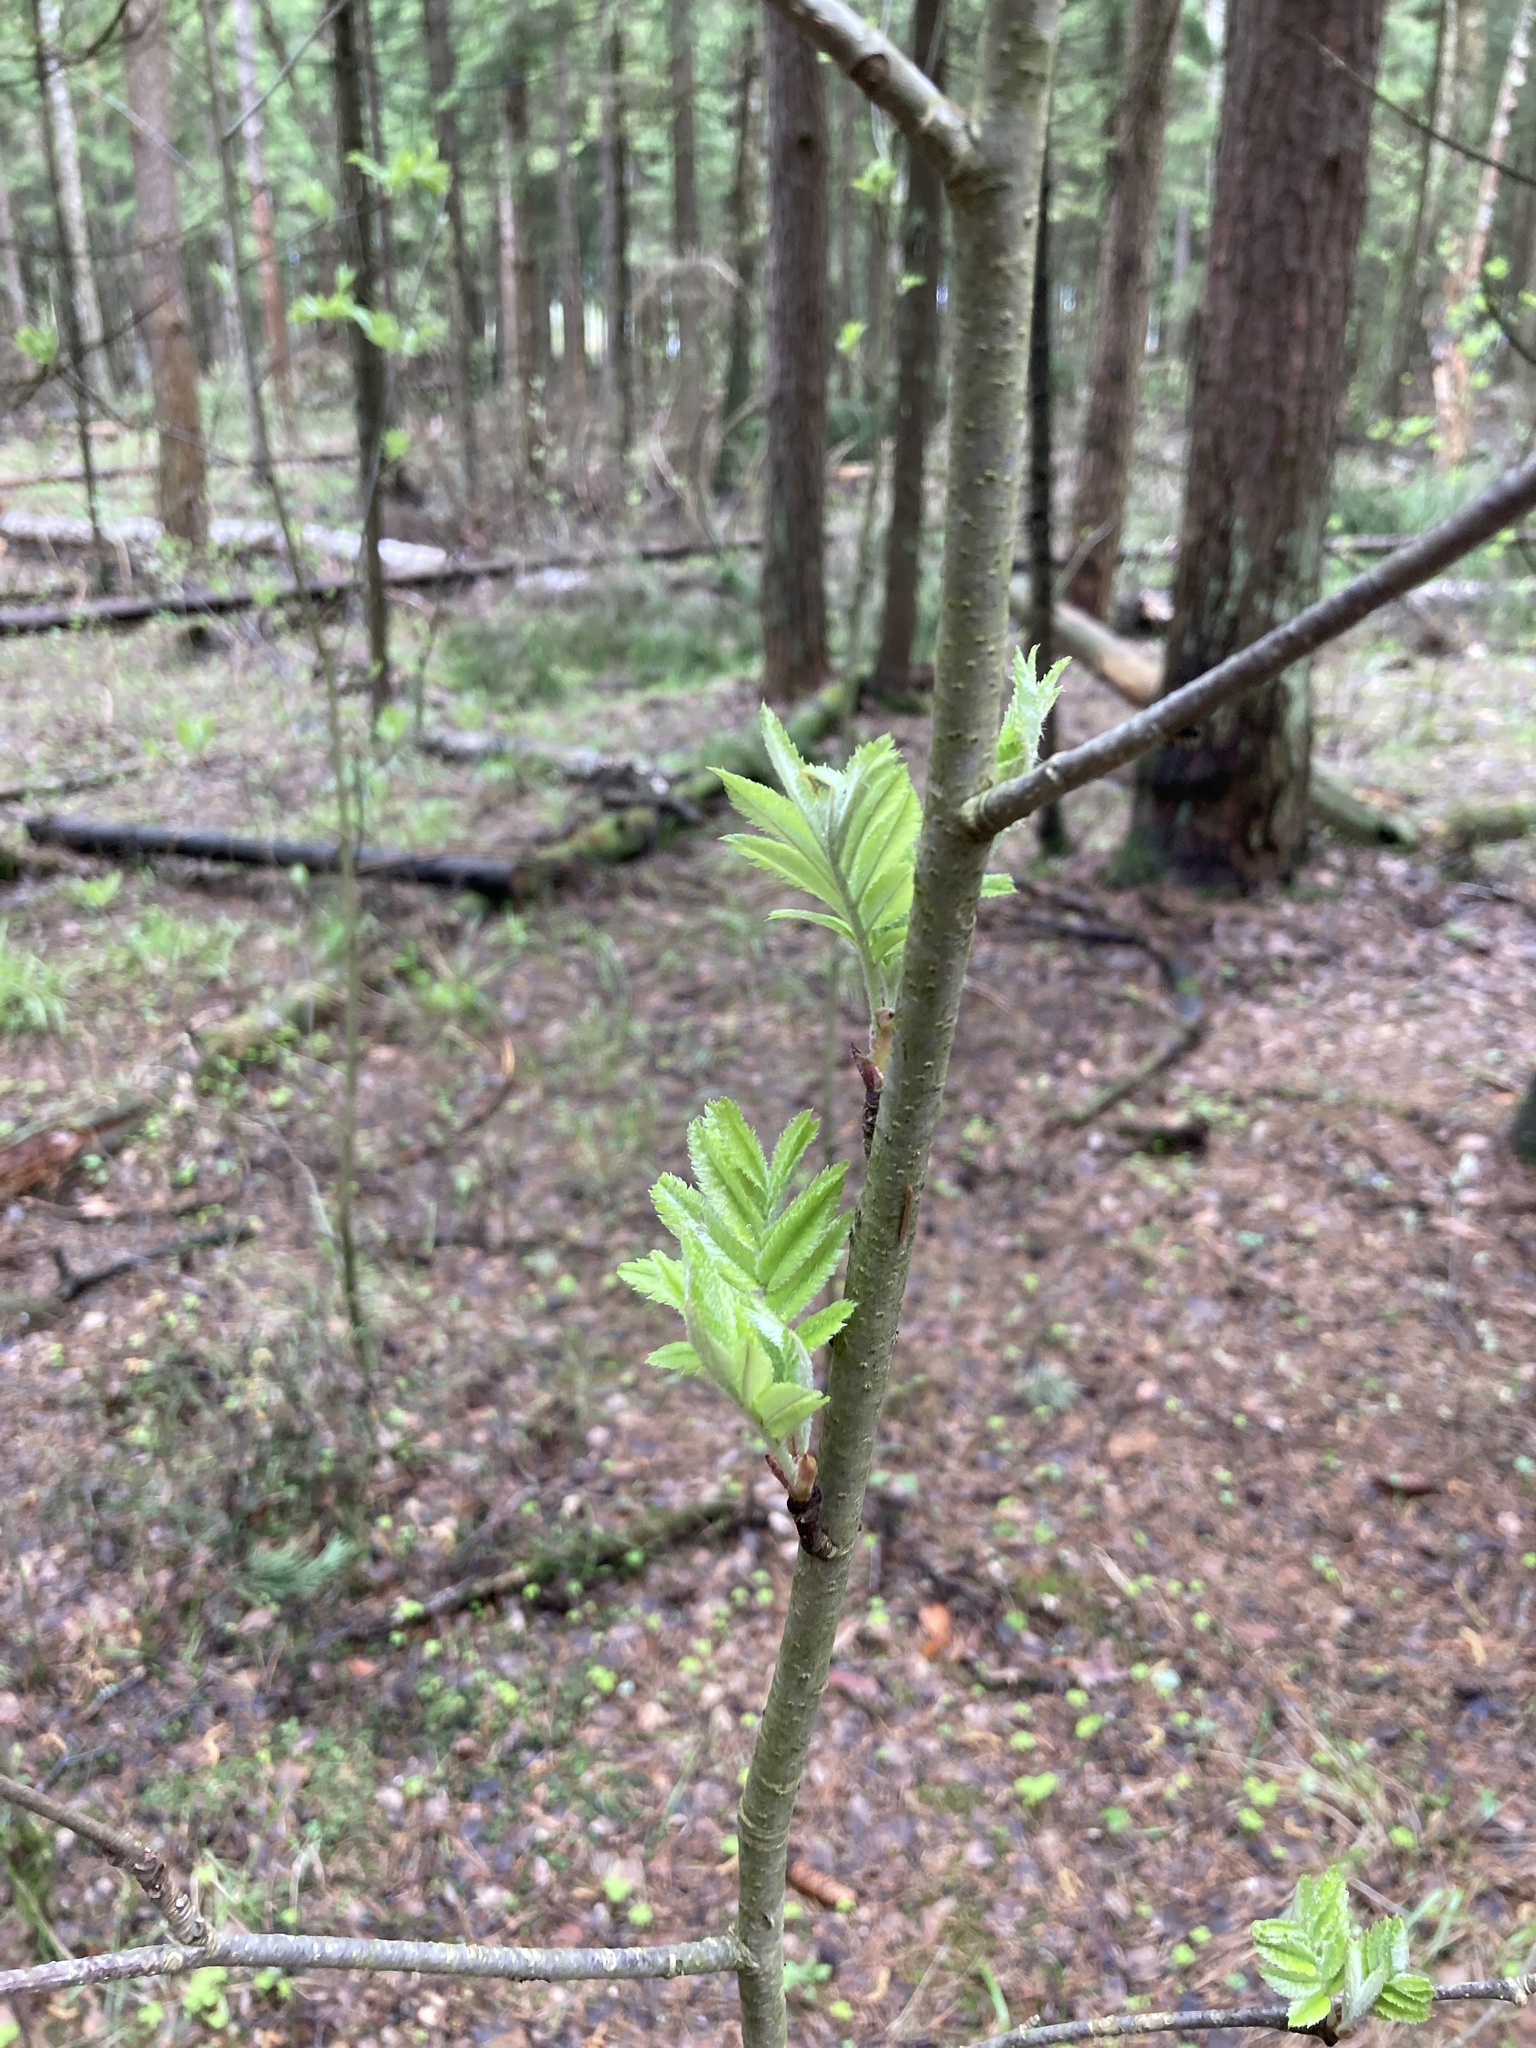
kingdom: Plantae
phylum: Tracheophyta
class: Magnoliopsida
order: Rosales
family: Rosaceae
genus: Sorbus
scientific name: Sorbus aucuparia
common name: Rowan
